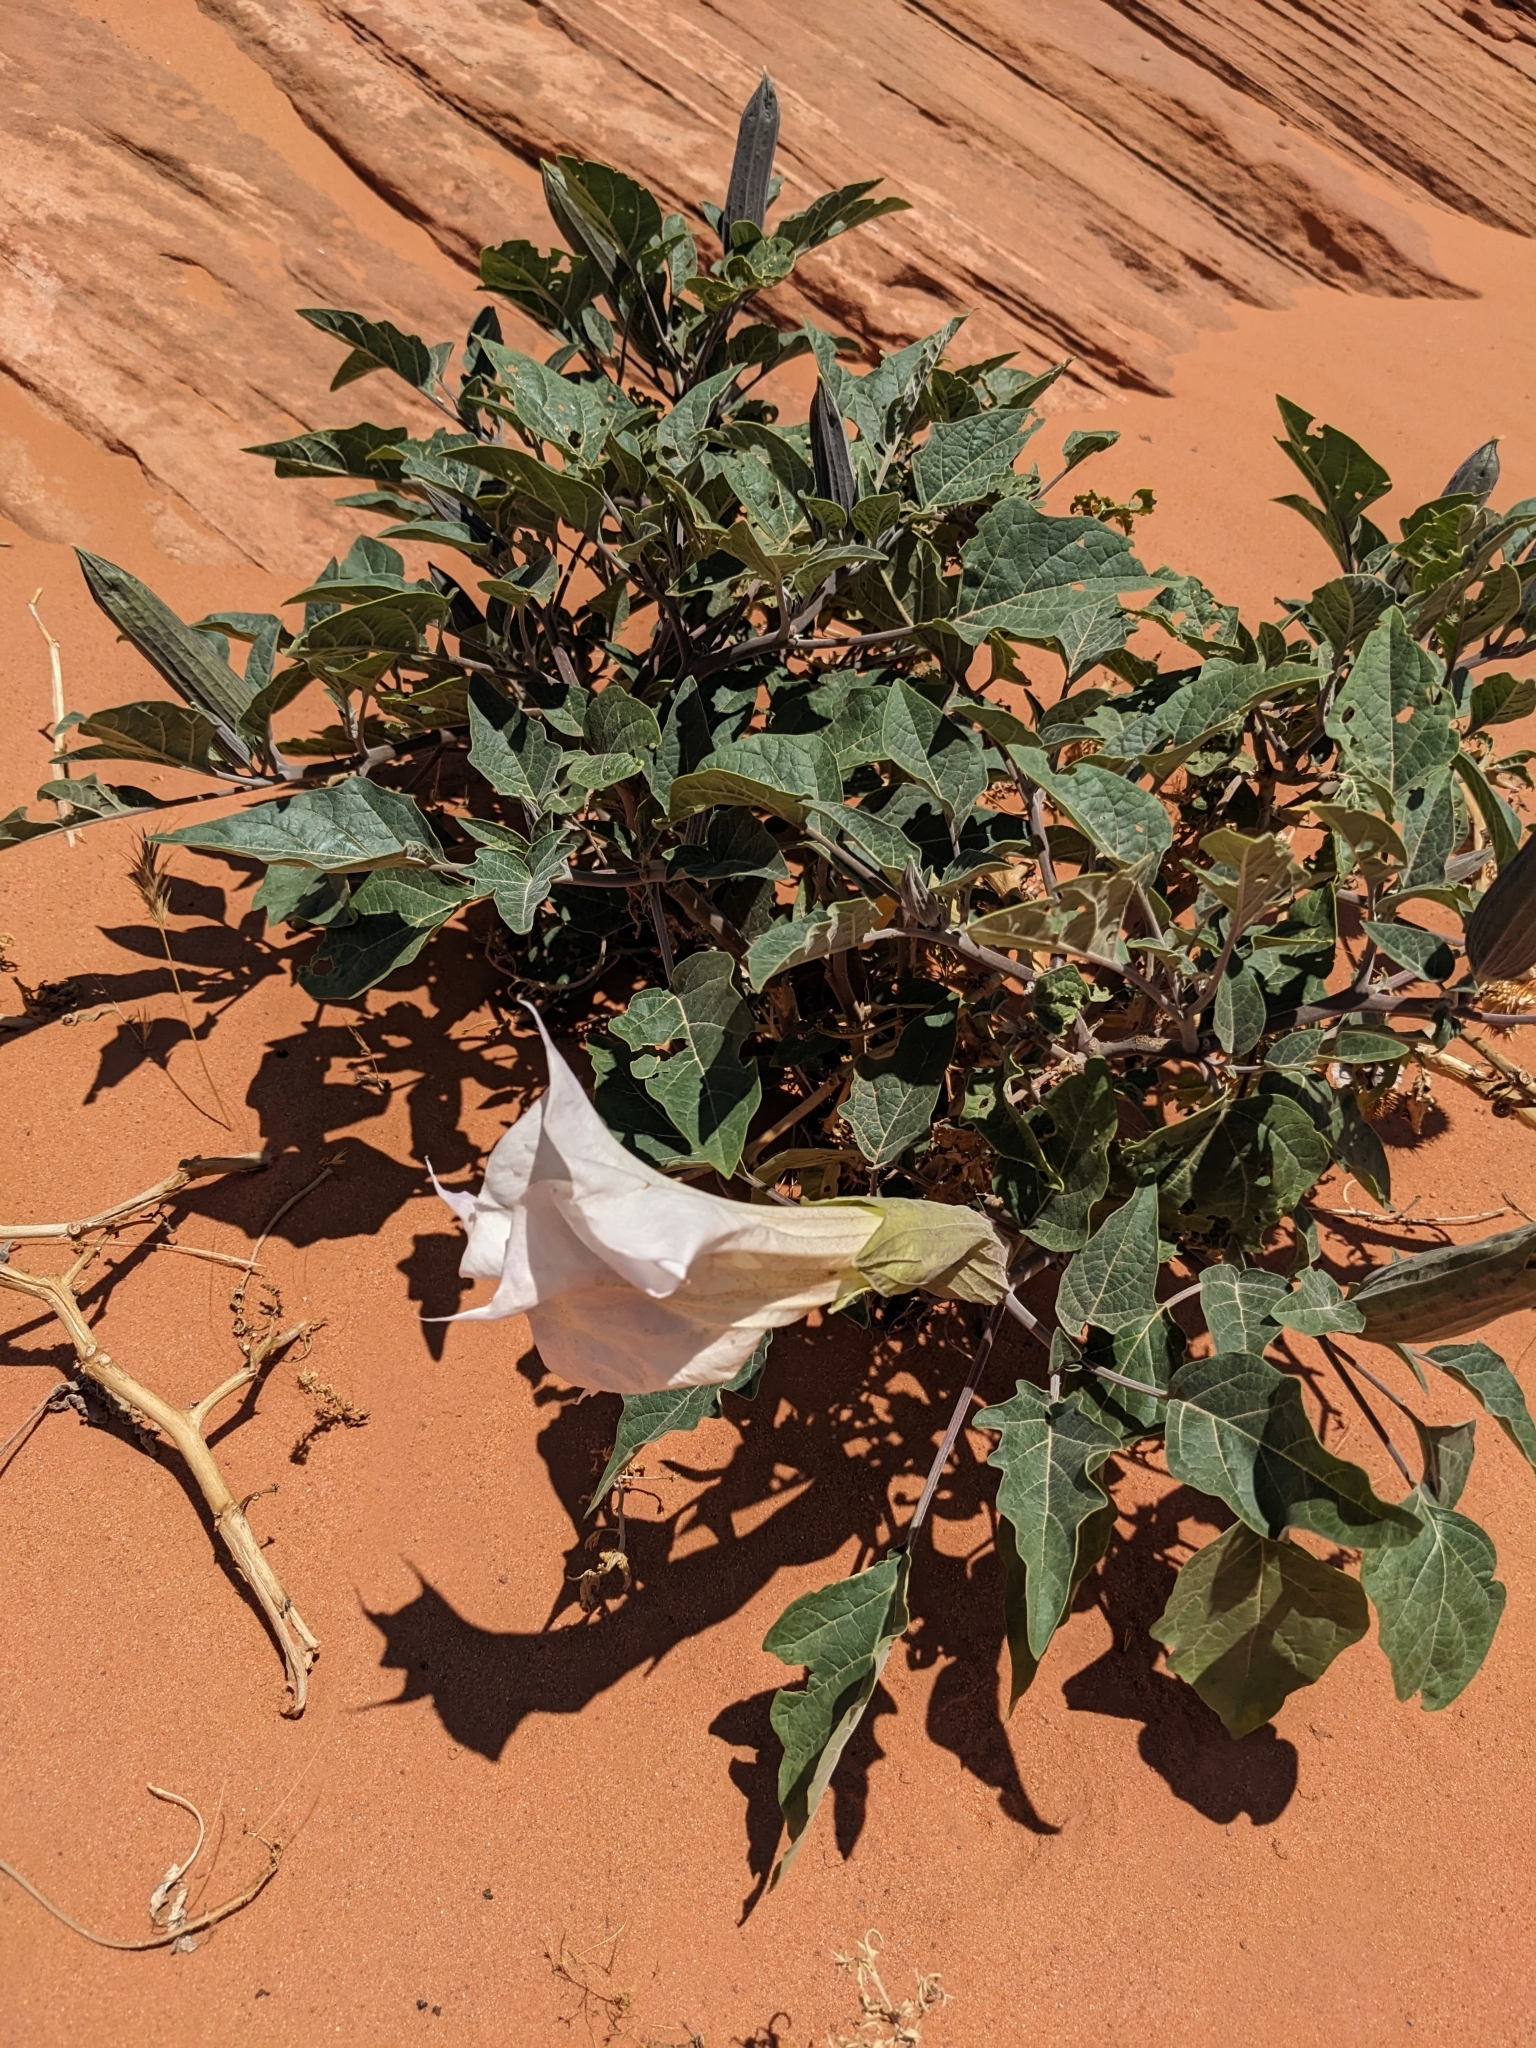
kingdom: Plantae
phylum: Tracheophyta
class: Magnoliopsida
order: Solanales
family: Solanaceae
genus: Datura
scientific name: Datura wrightii
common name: Sacred thorn-apple
